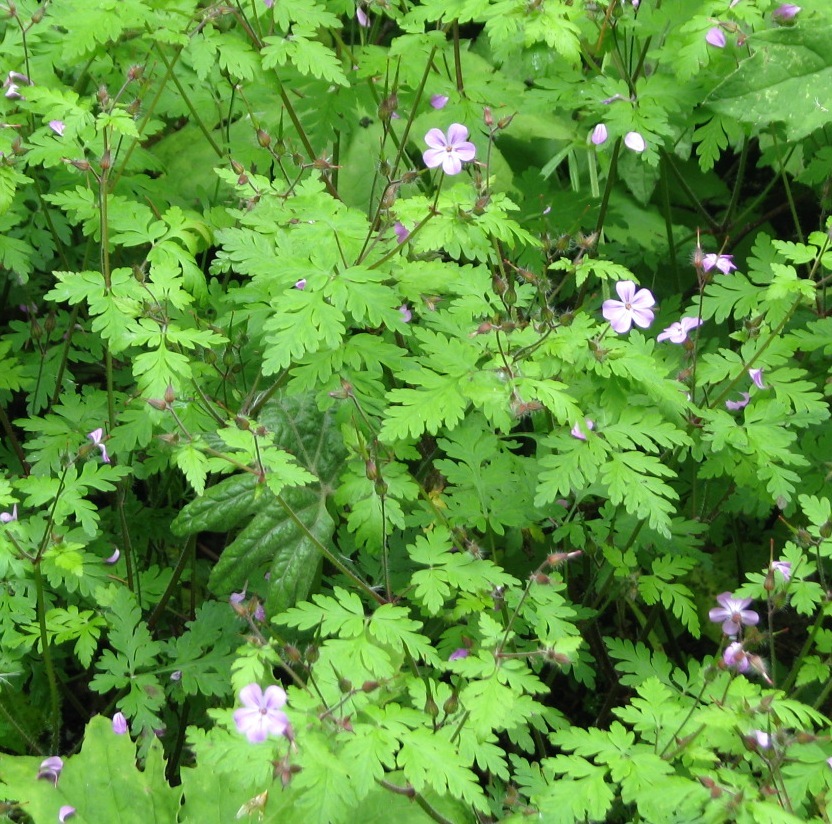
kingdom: Plantae
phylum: Tracheophyta
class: Magnoliopsida
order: Geraniales
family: Geraniaceae
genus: Geranium
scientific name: Geranium robertianum
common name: Herb-robert
